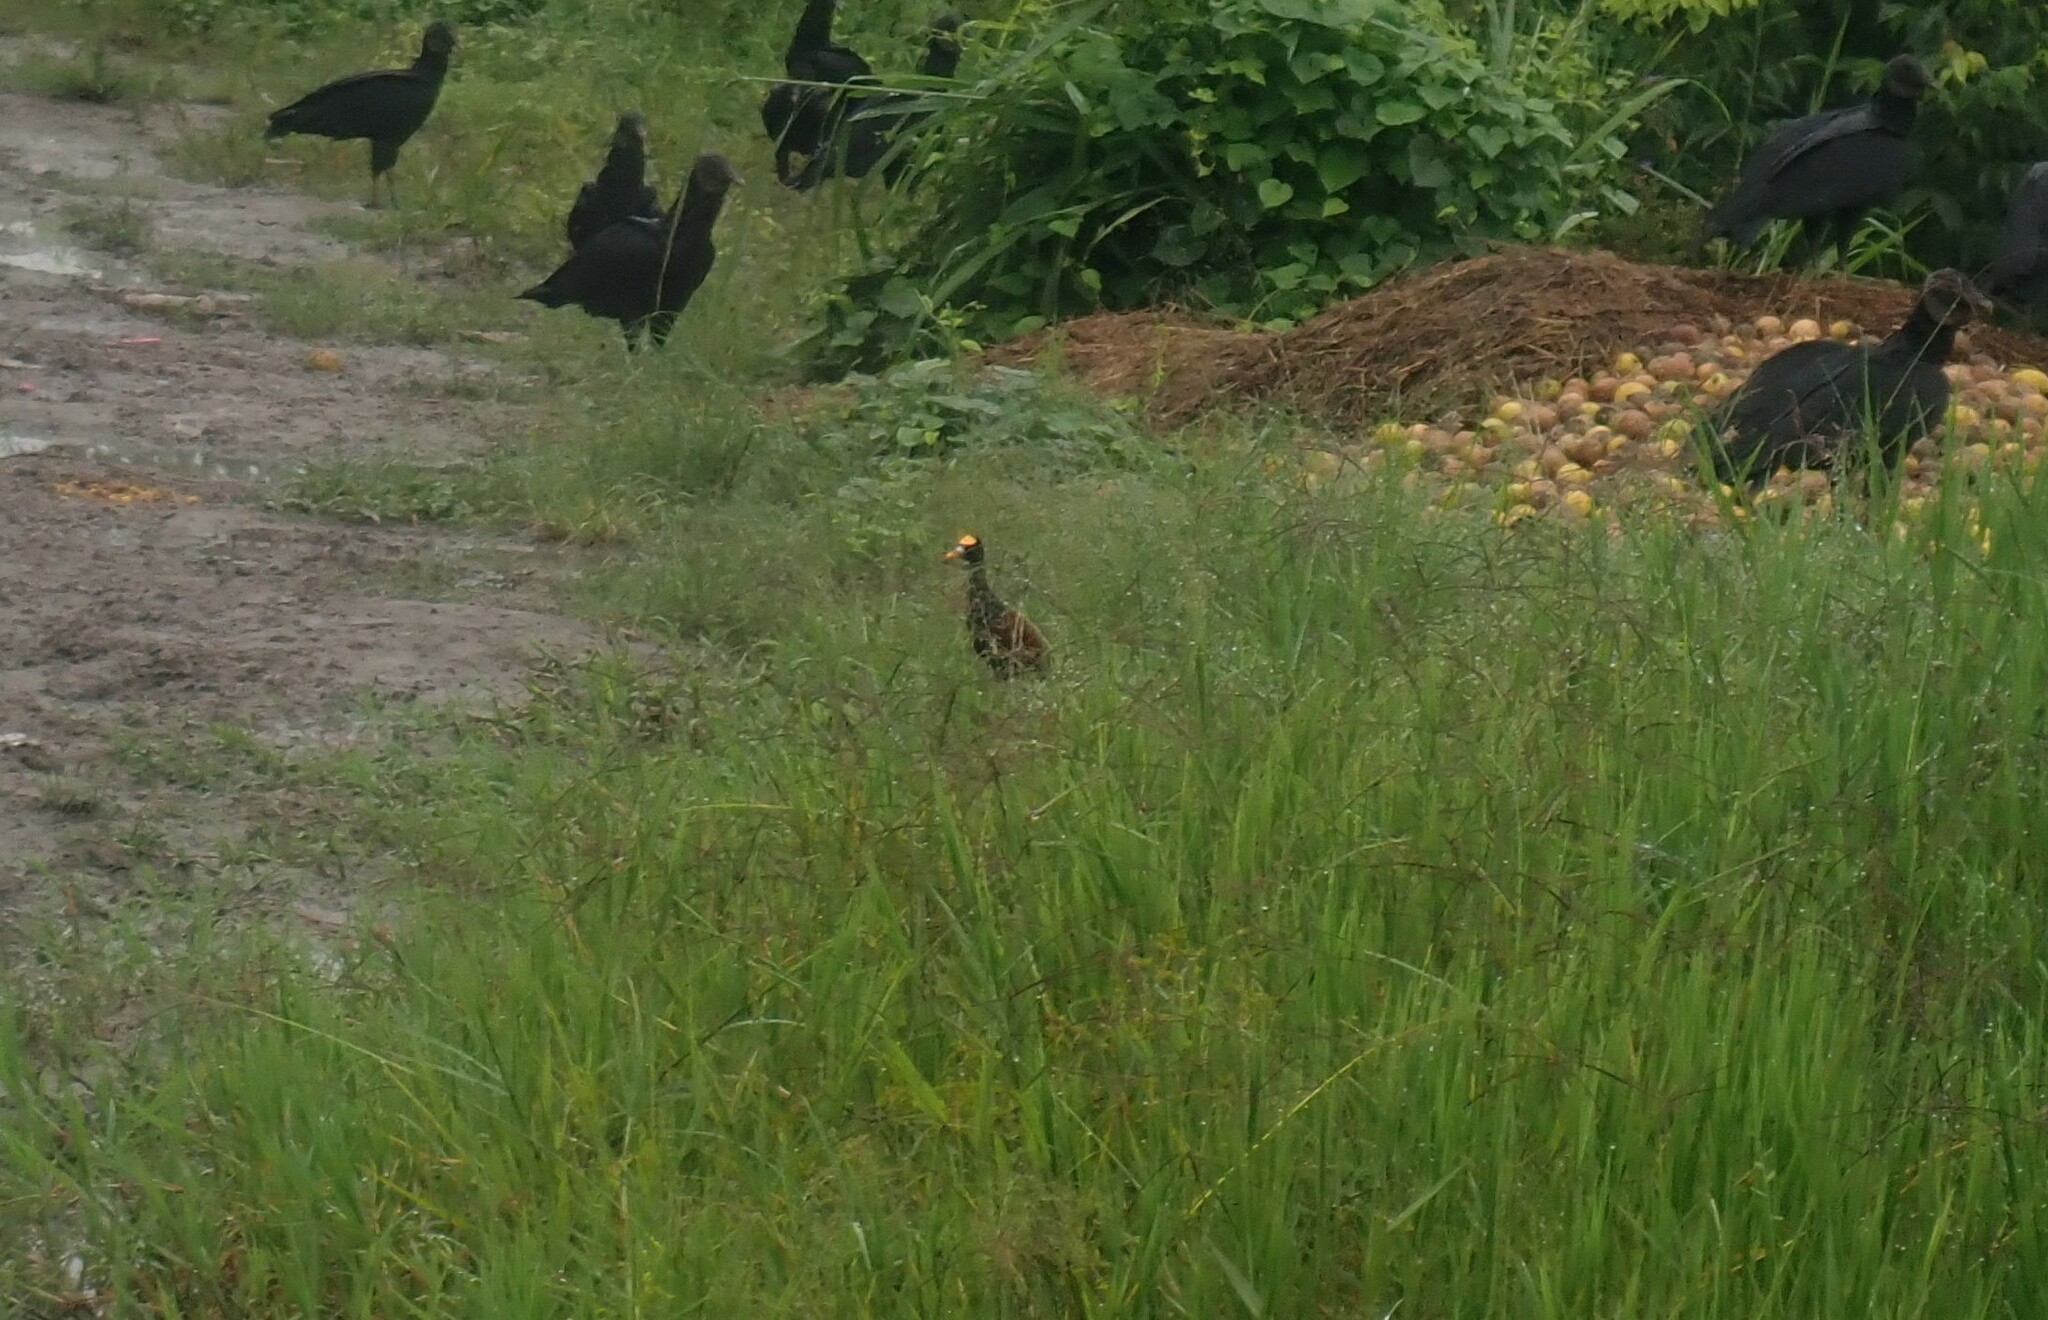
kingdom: Animalia
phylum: Chordata
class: Aves
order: Charadriiformes
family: Jacanidae
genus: Jacana
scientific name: Jacana spinosa
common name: Northern jacana
